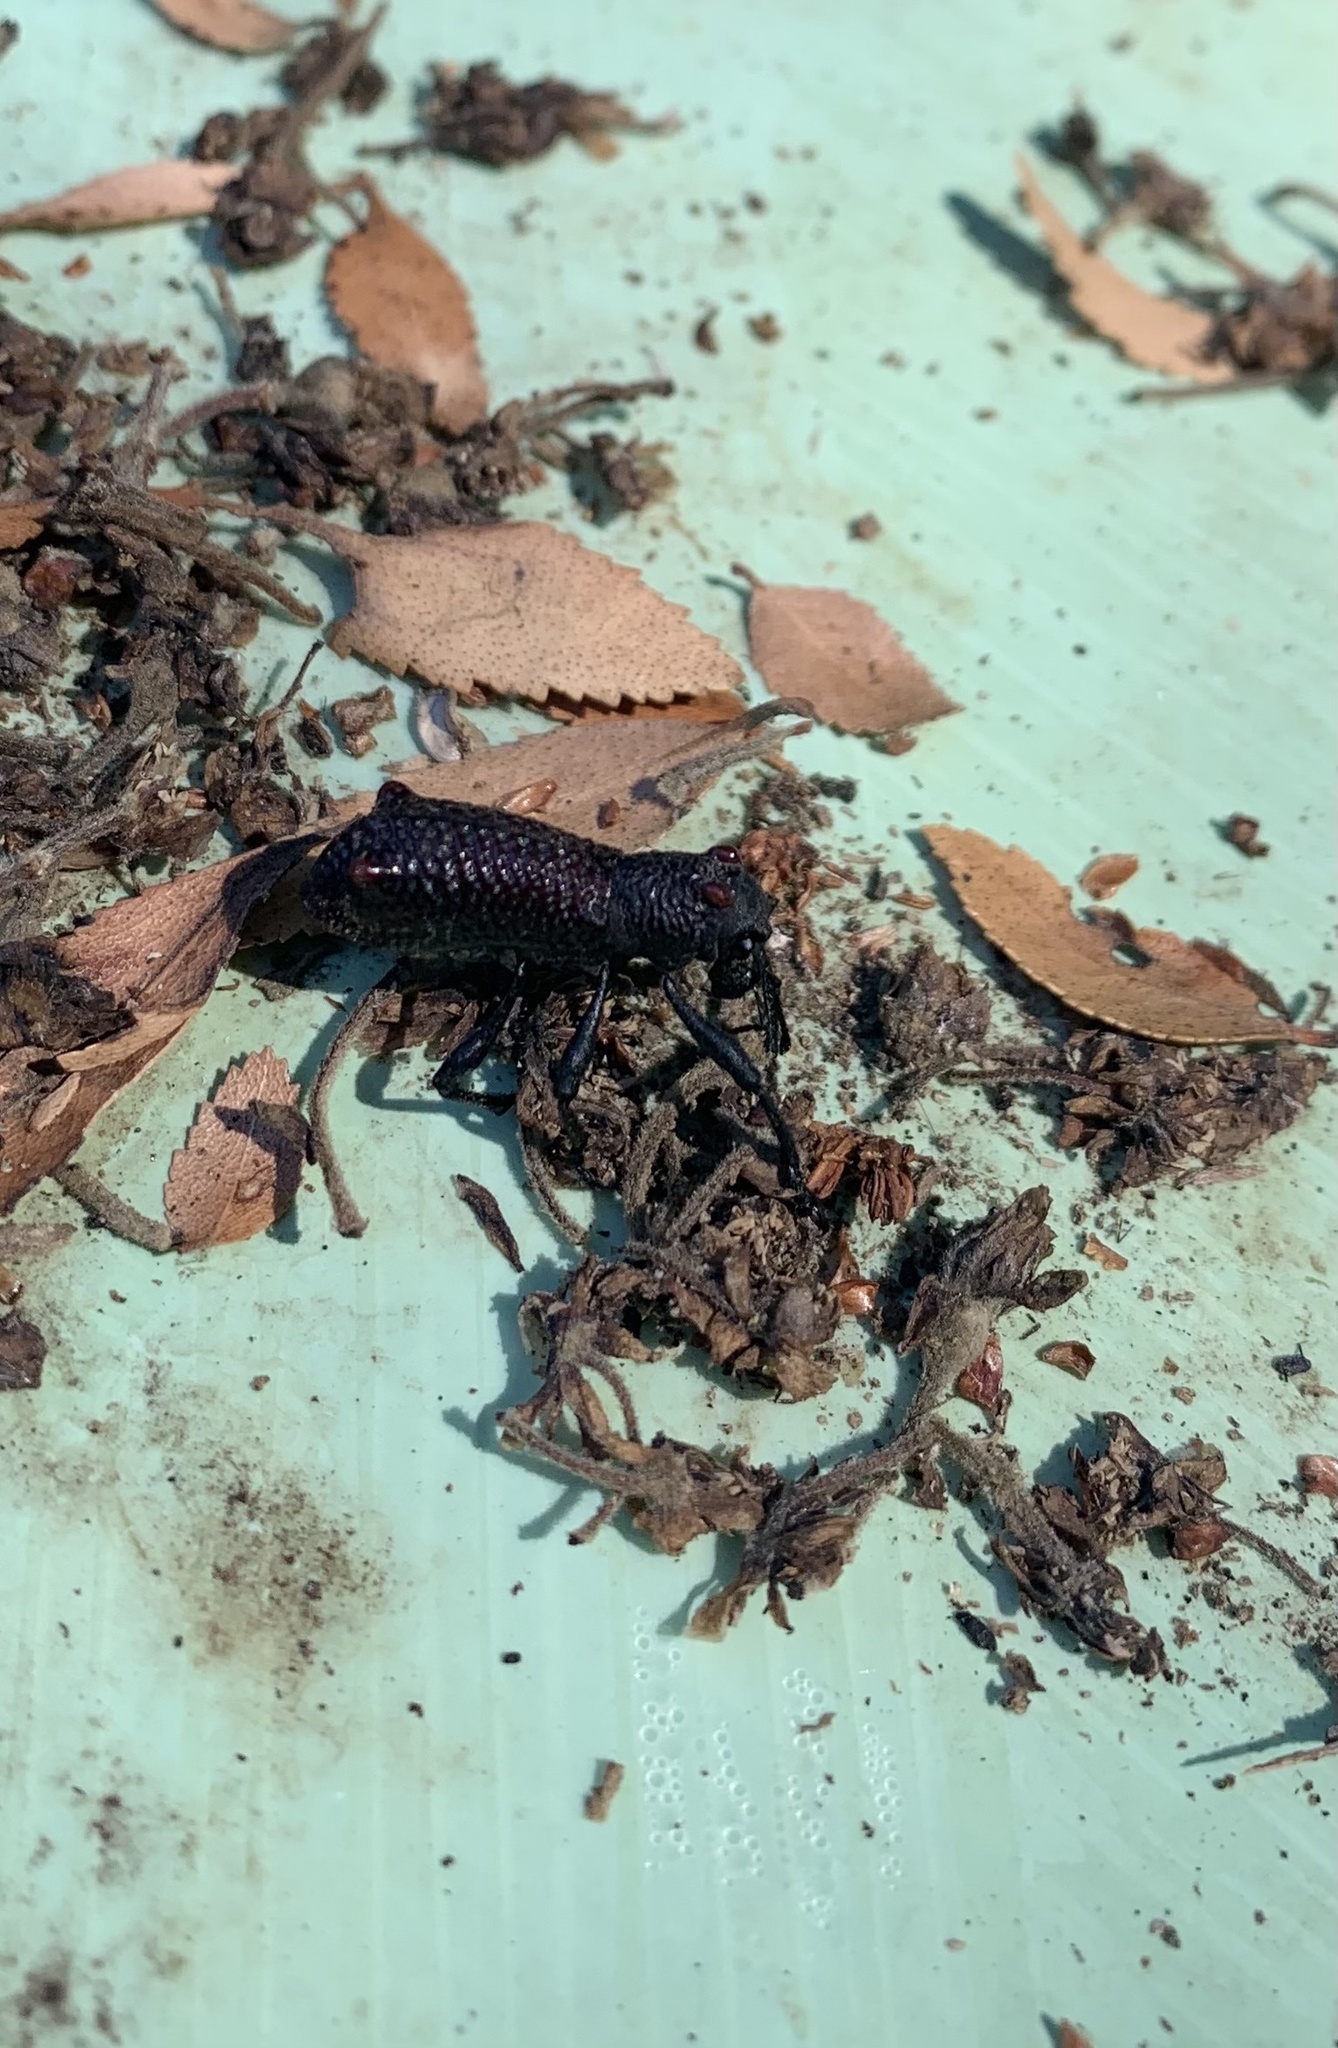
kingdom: Animalia
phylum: Arthropoda
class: Insecta
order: Coleoptera
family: Curculionidae
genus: Aegorhinus
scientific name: Aegorhinus bulbifer
